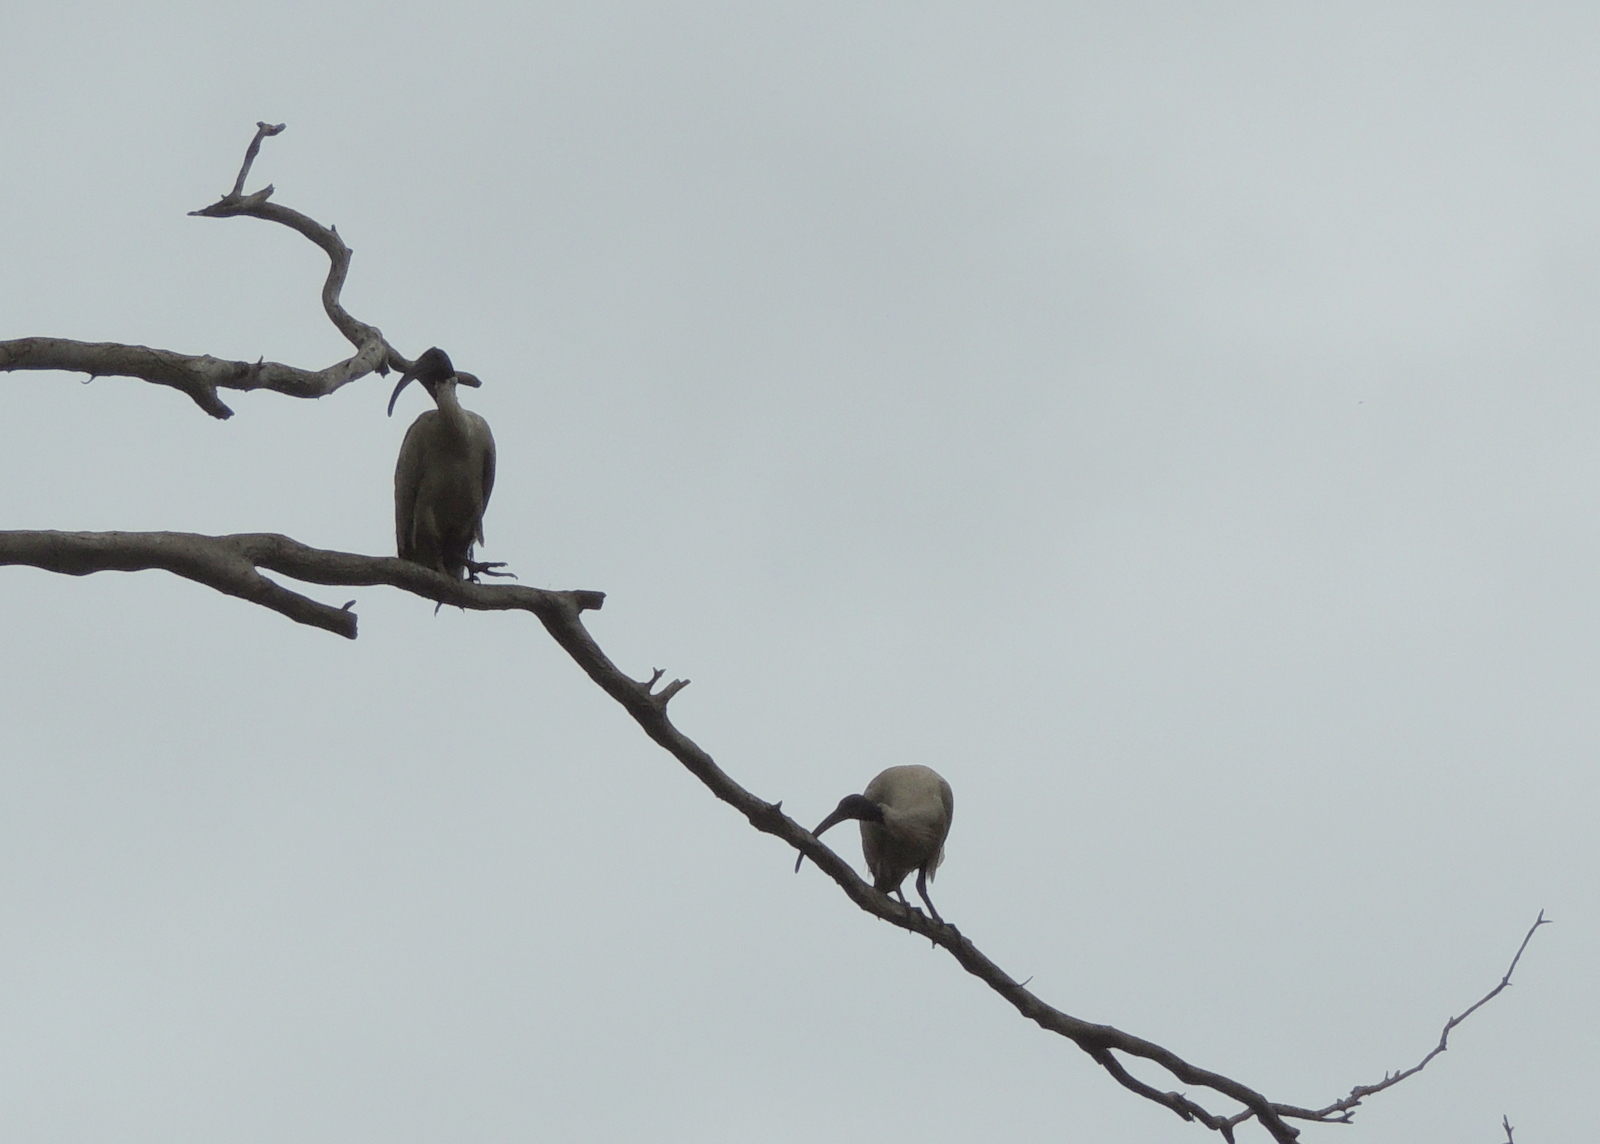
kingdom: Animalia
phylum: Chordata
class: Aves
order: Pelecaniformes
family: Threskiornithidae
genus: Threskiornis
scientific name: Threskiornis molucca
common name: Australian white ibis
